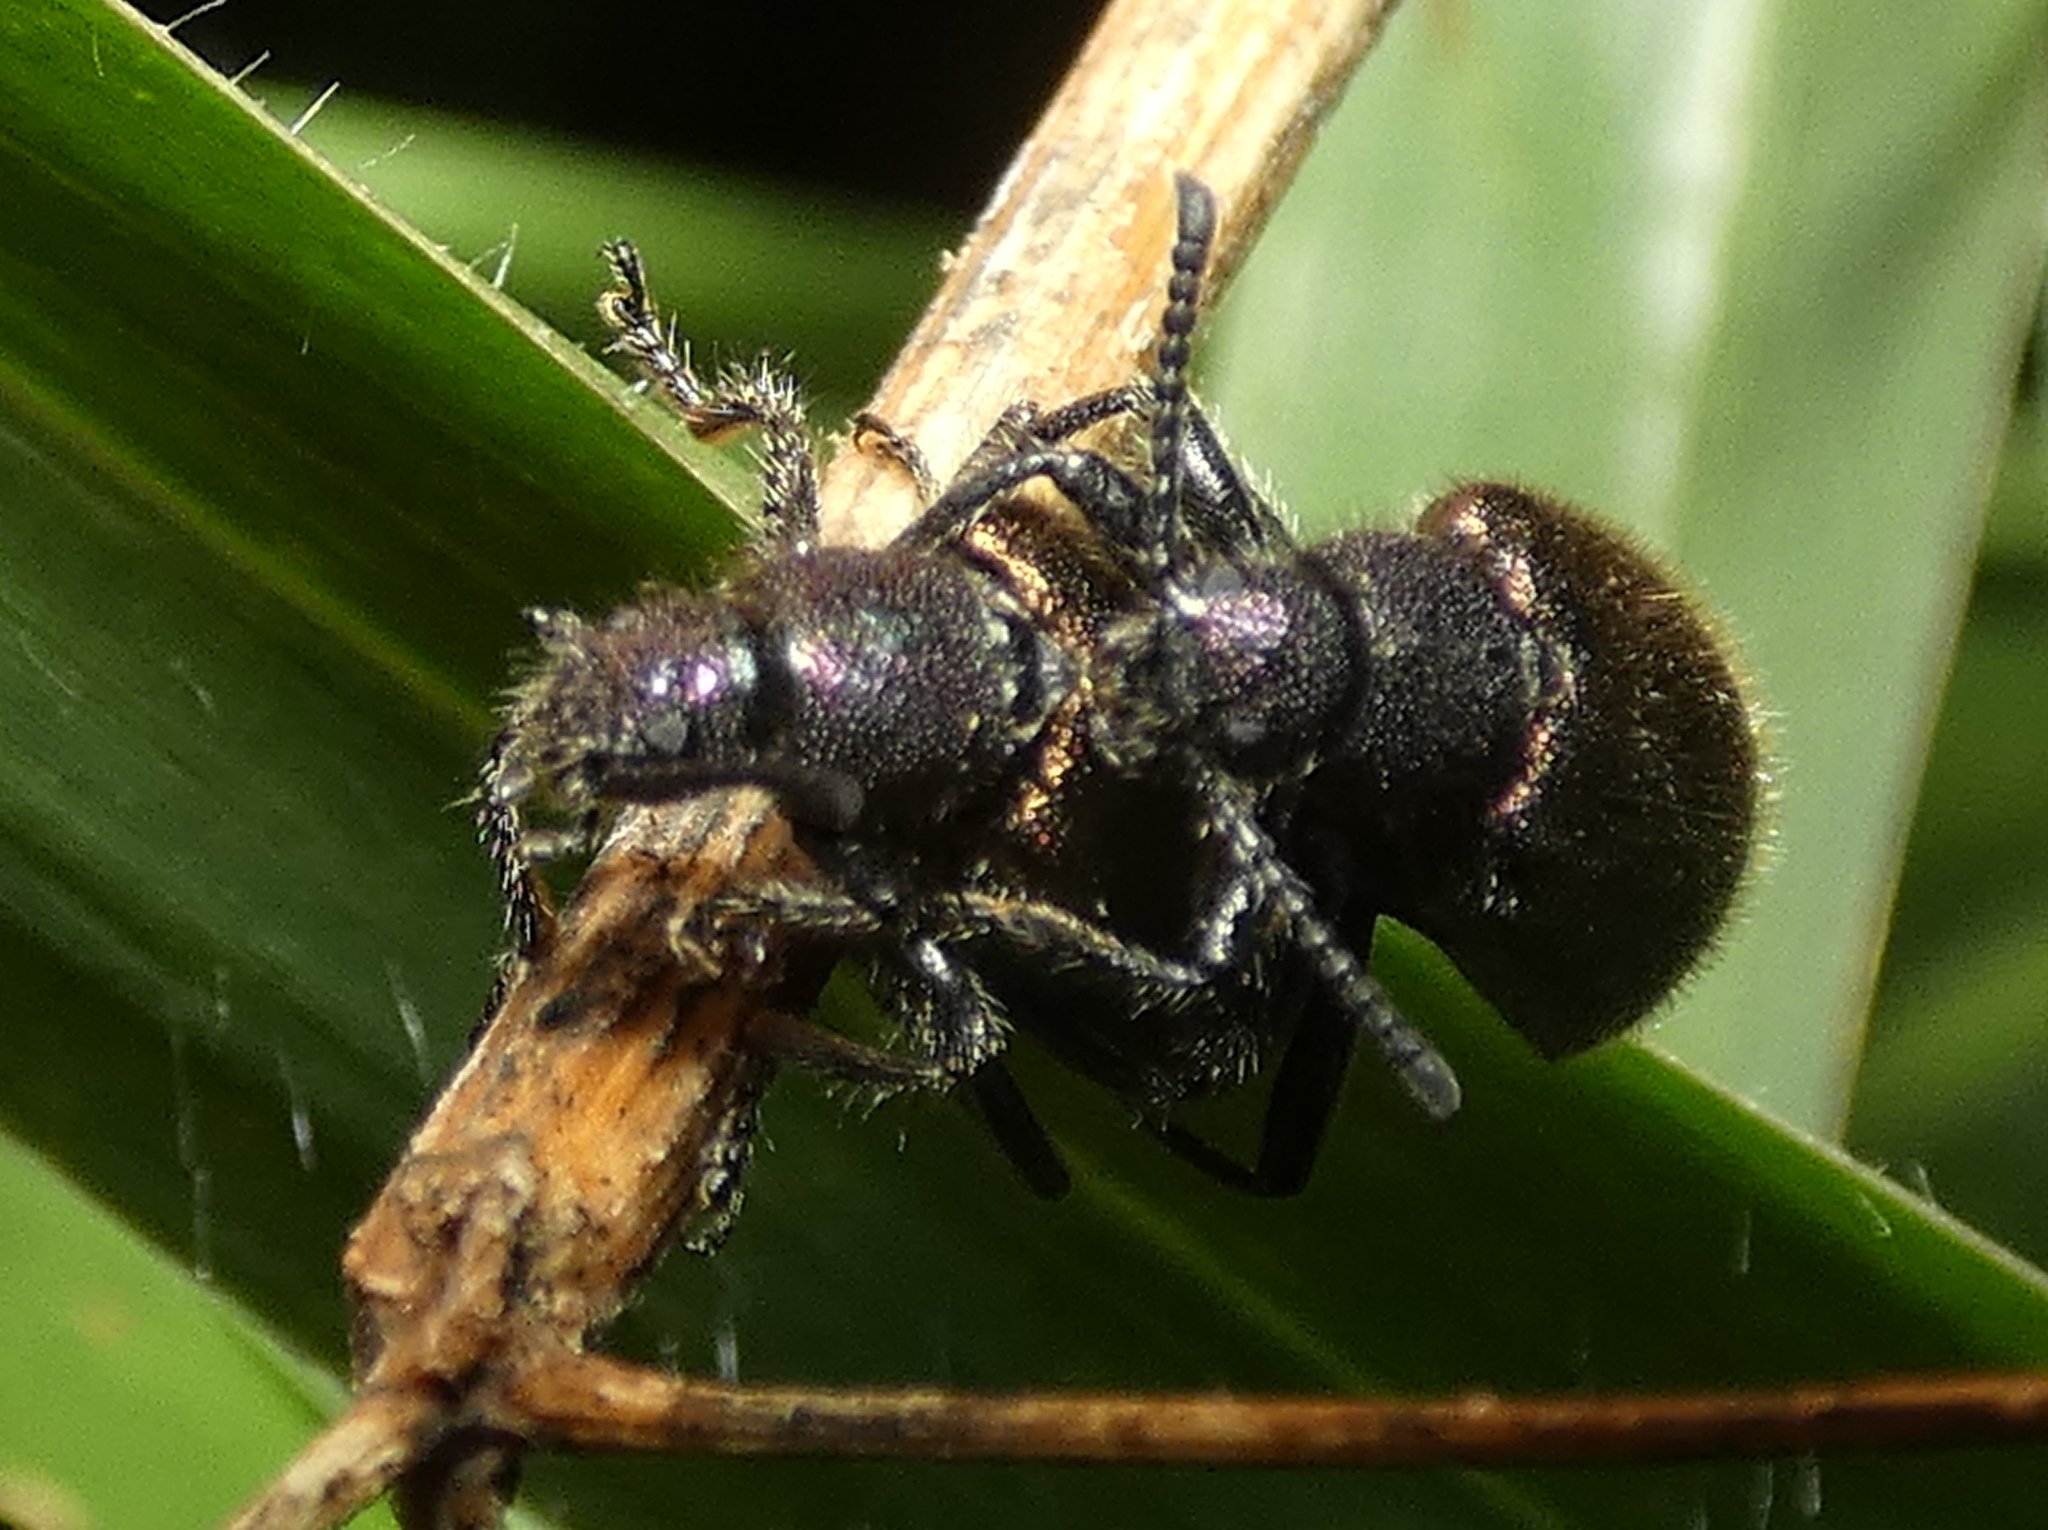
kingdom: Animalia
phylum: Arthropoda
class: Insecta
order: Coleoptera
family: Tenebrionidae
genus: Lagria
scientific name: Lagria villosa
